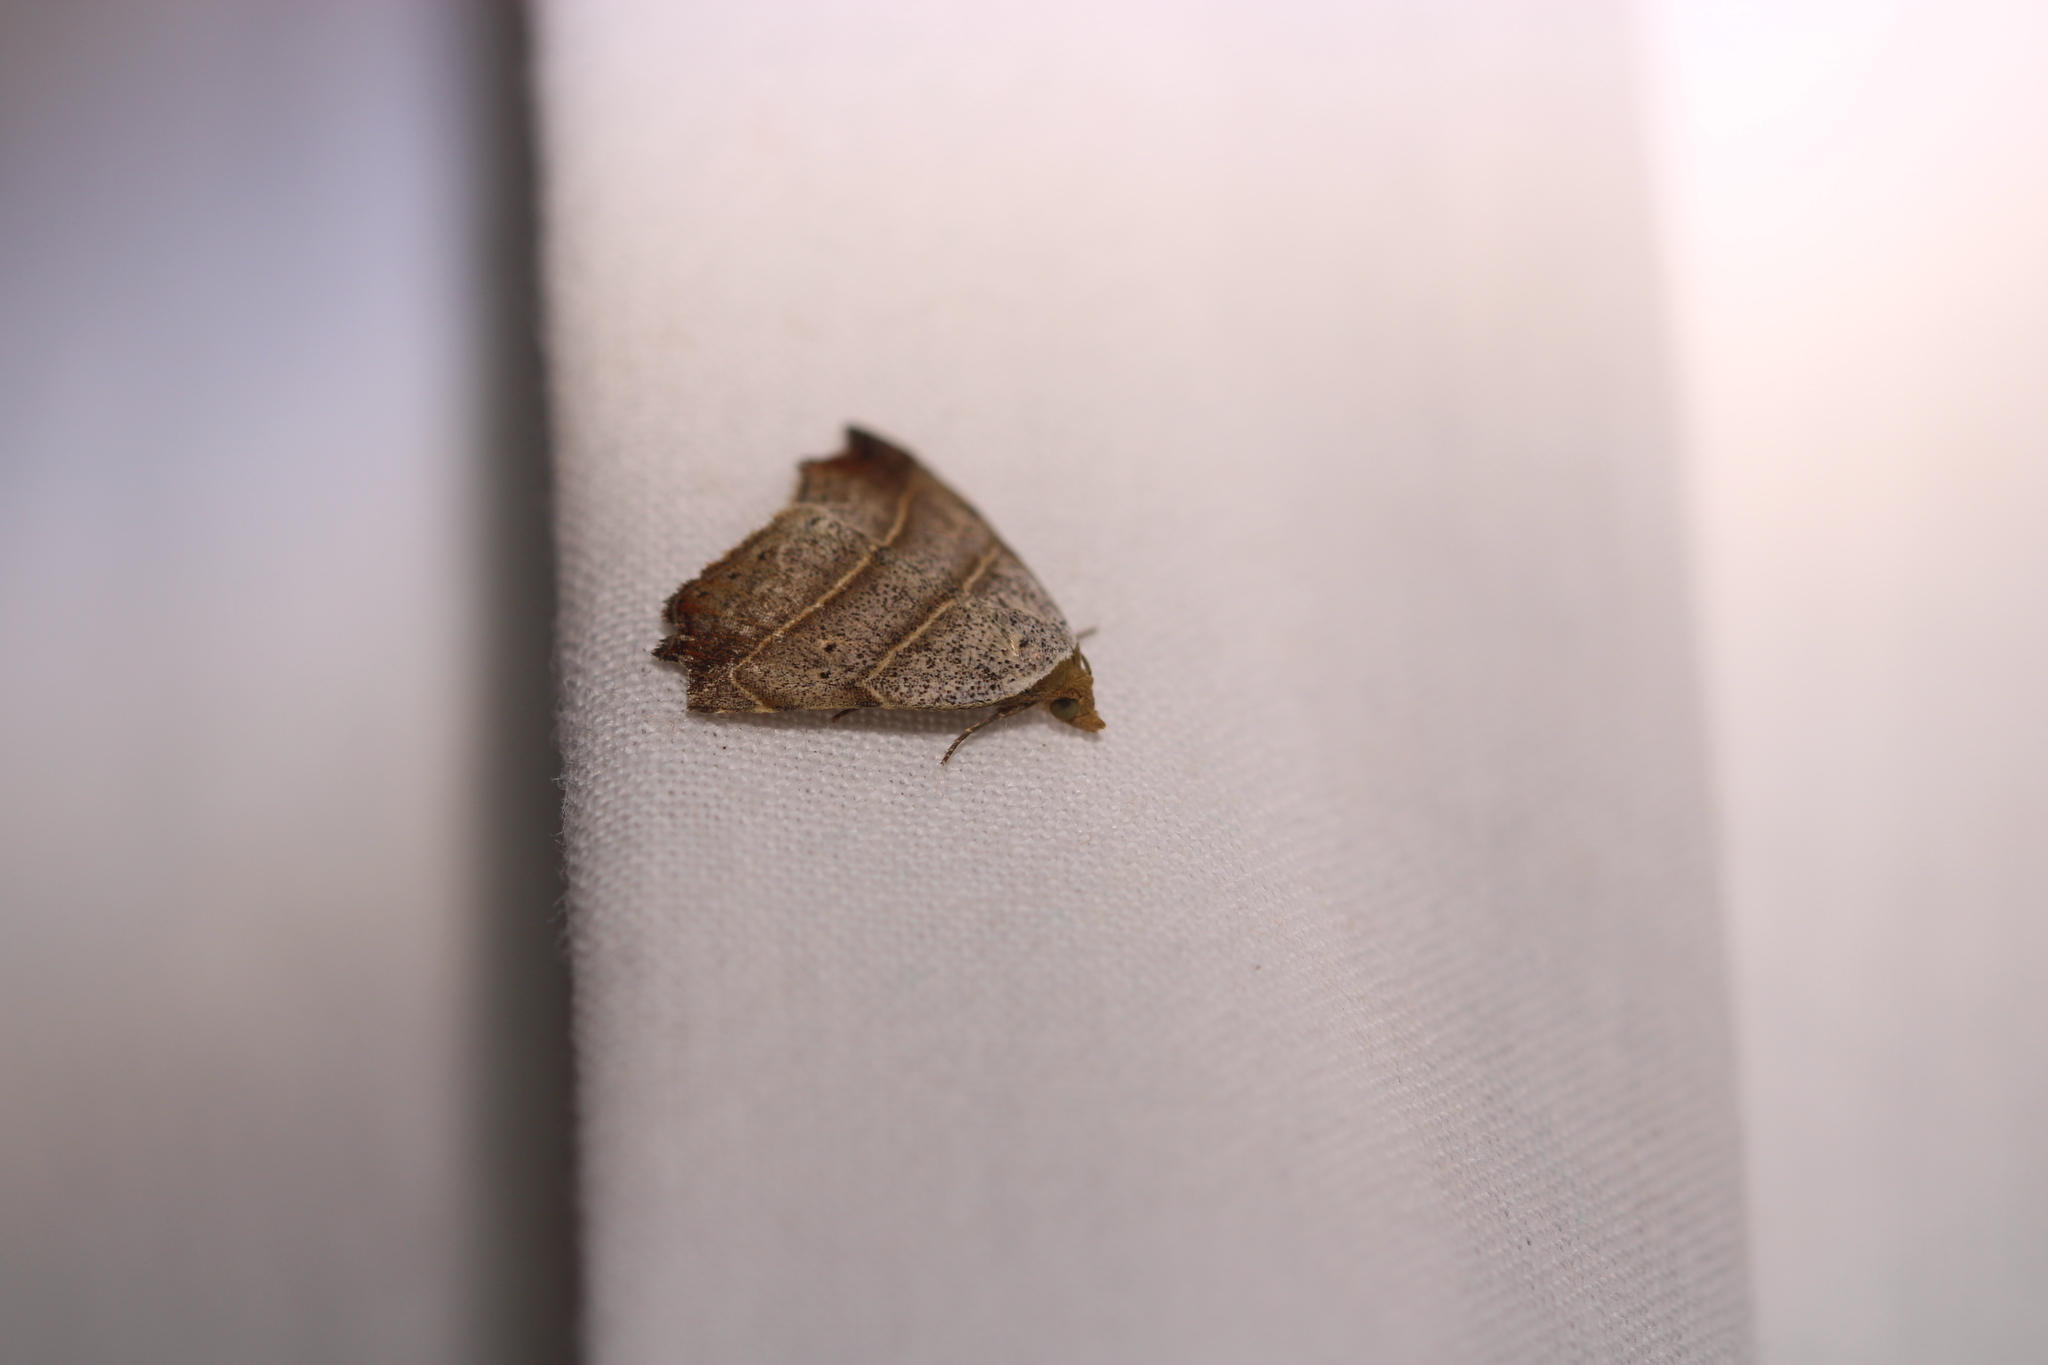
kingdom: Animalia
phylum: Arthropoda
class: Insecta
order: Lepidoptera
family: Erebidae
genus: Laspeyria
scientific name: Laspeyria flexula
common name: Beautiful hook-tip
